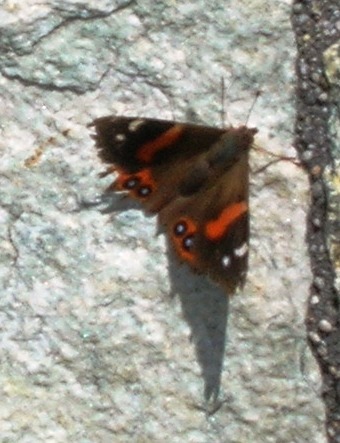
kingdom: Animalia
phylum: Arthropoda
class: Insecta
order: Lepidoptera
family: Nymphalidae
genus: Vanessa
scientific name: Vanessa gonerilla
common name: New zealand red admiral
